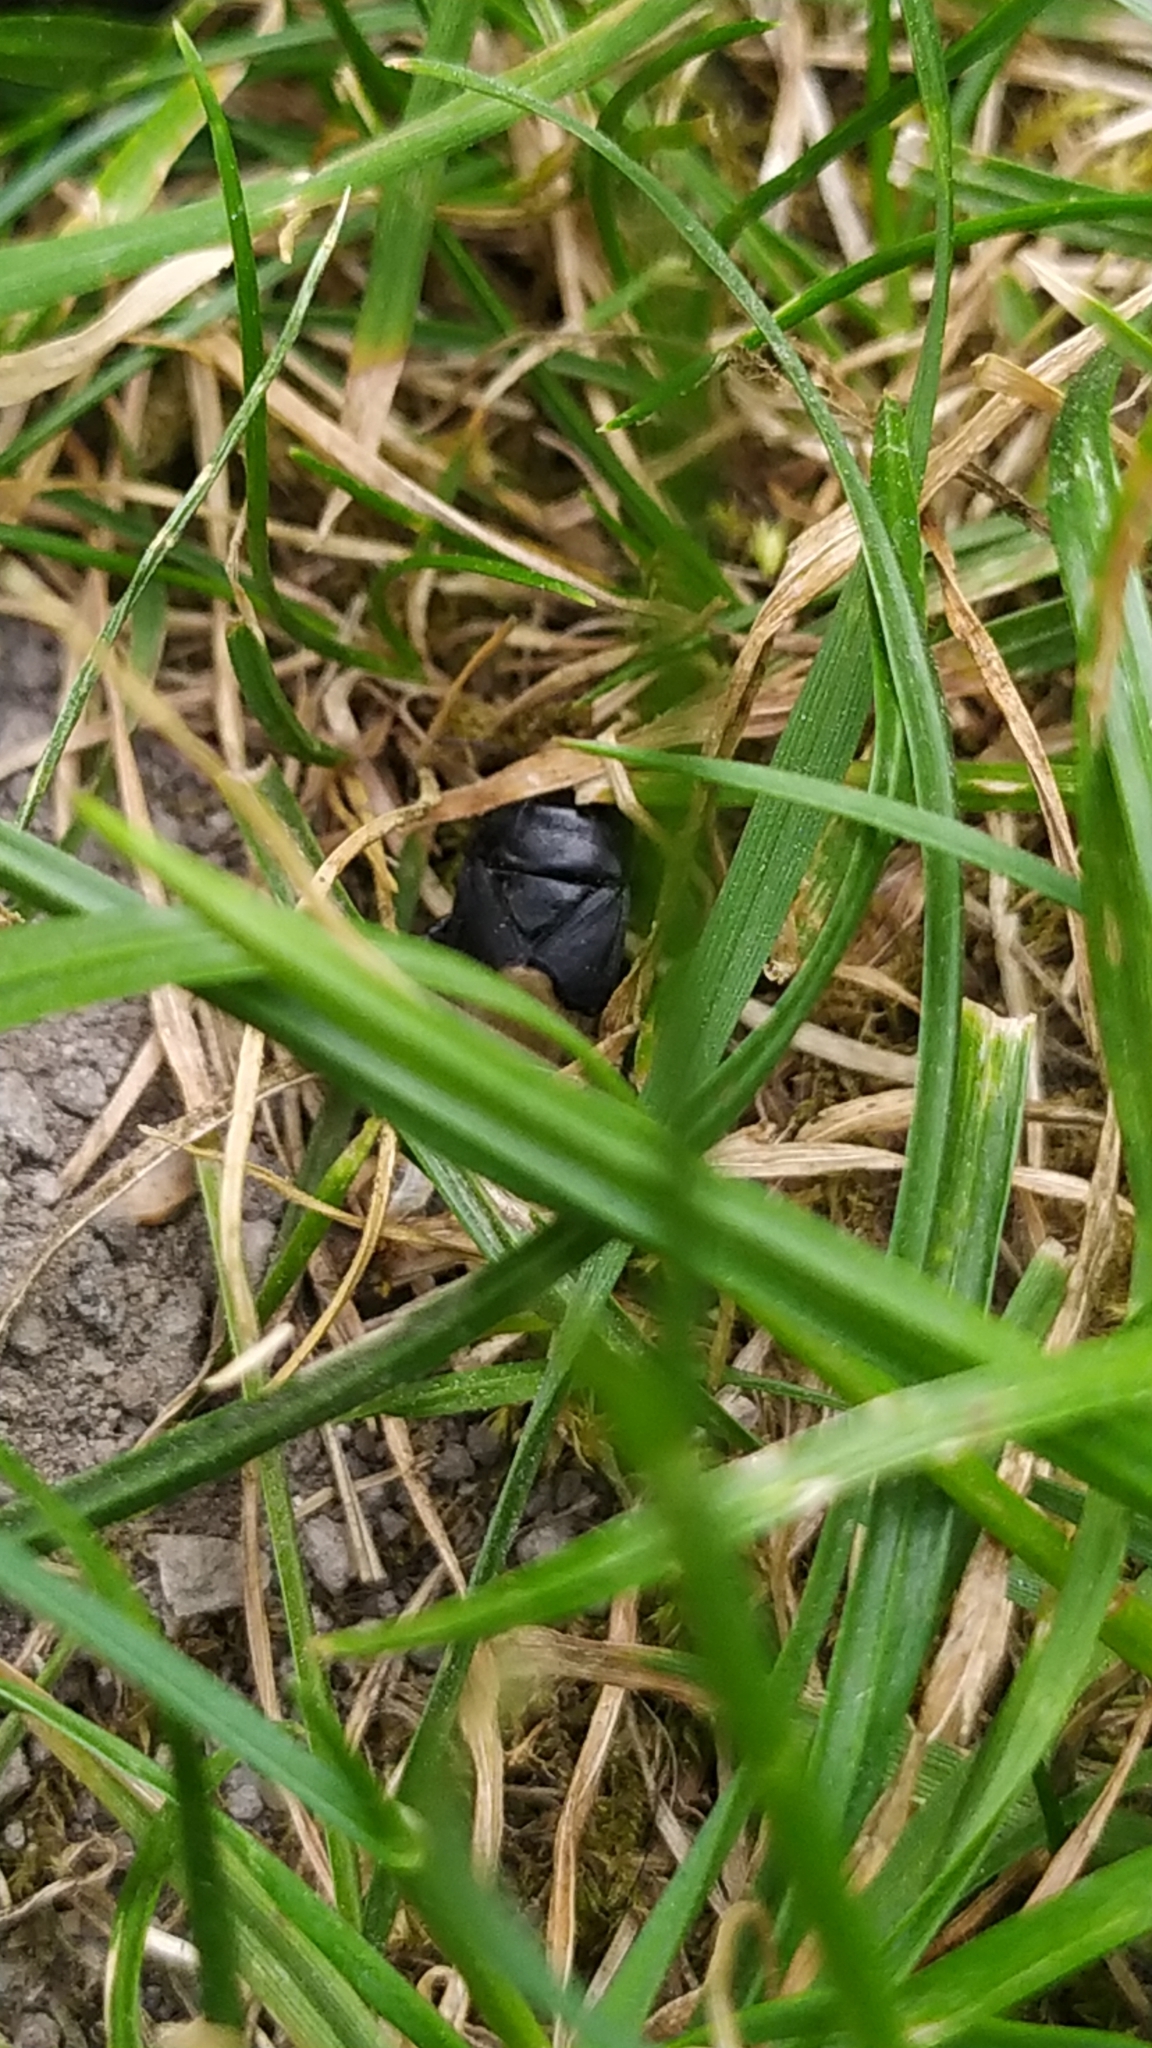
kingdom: Animalia
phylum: Arthropoda
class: Insecta
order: Hemiptera
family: Cydnidae
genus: Cydnus
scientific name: Cydnus aterrimus
